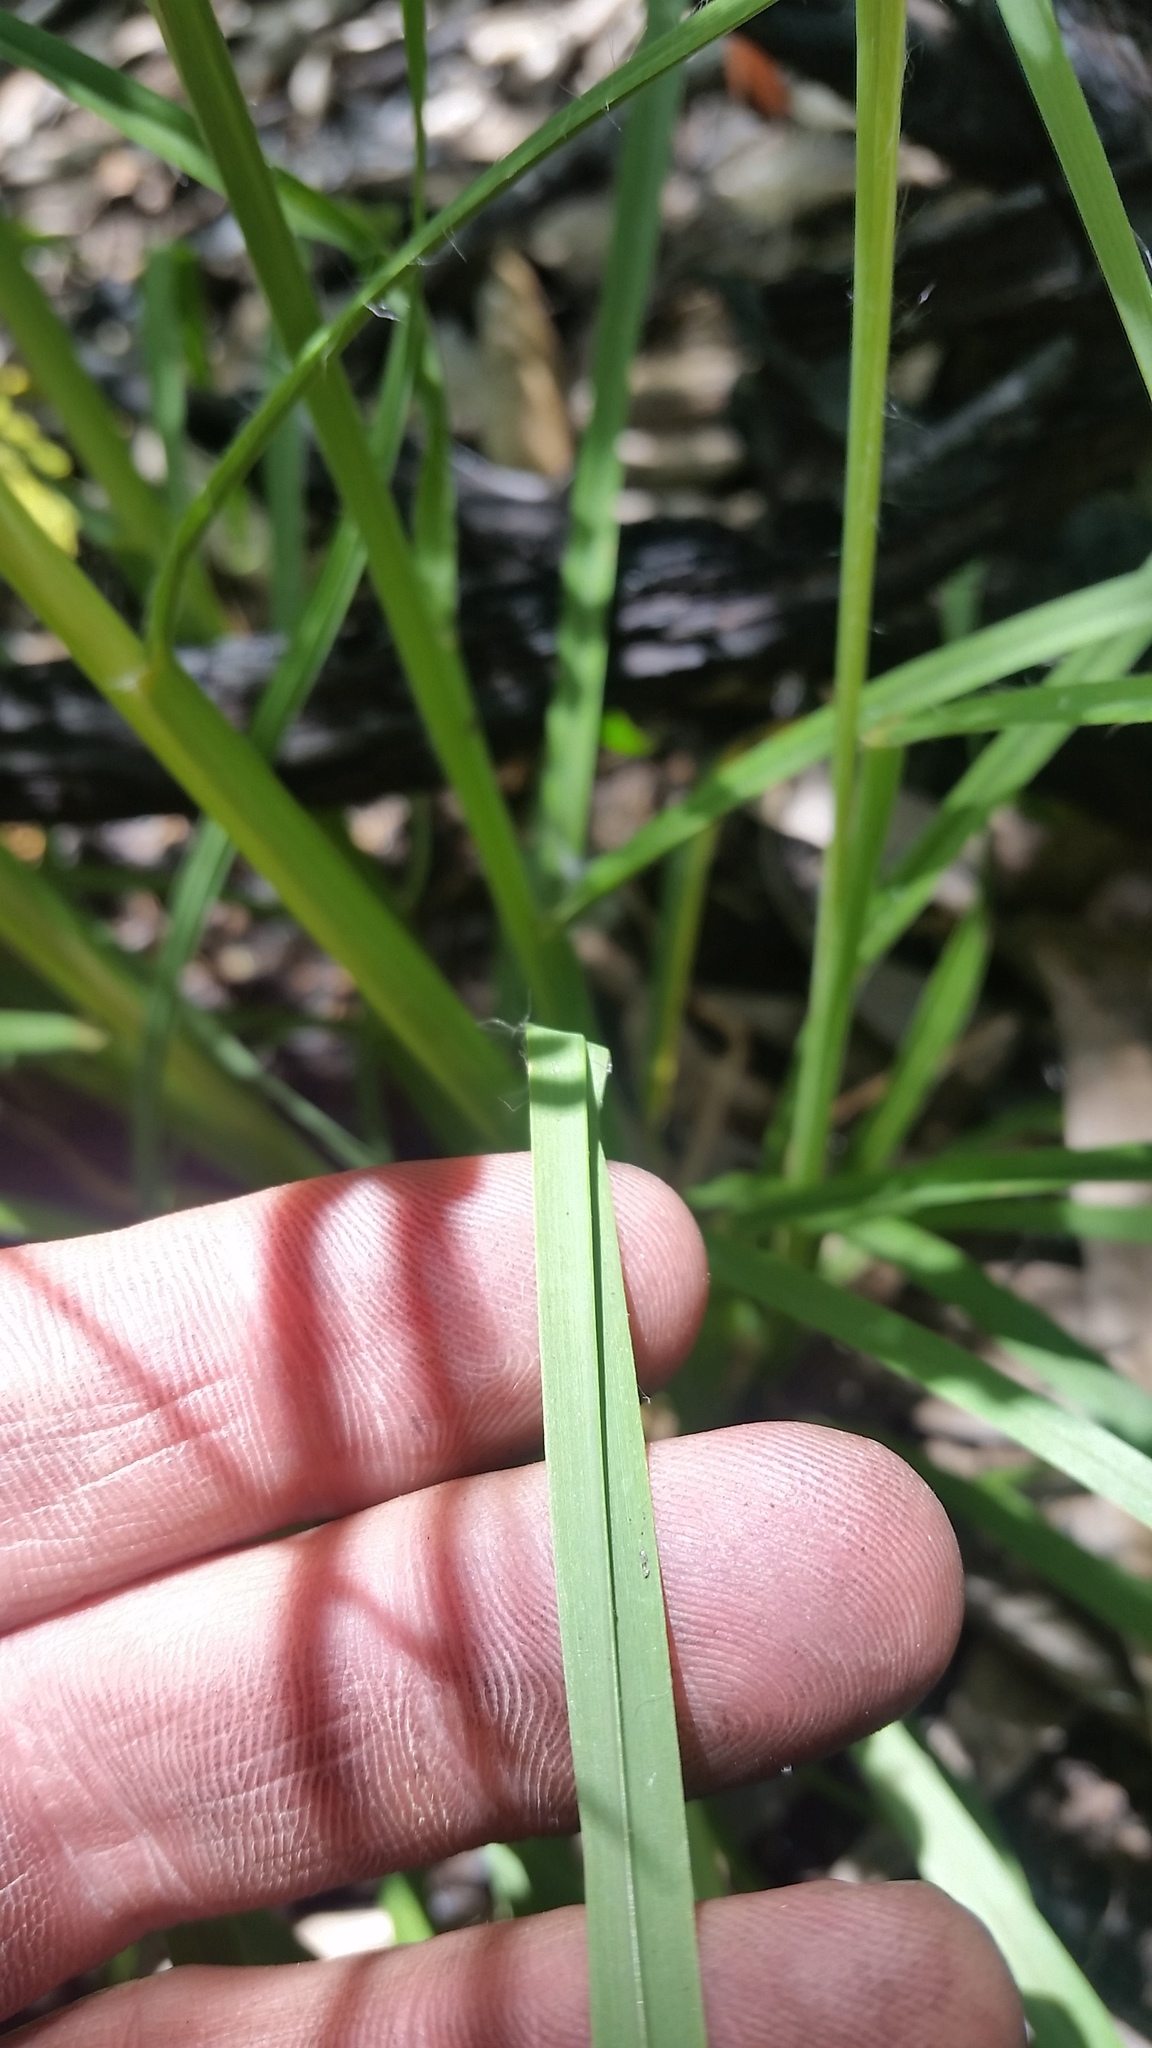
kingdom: Plantae
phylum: Tracheophyta
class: Liliopsida
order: Poales
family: Poaceae
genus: Andropogon
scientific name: Andropogon virginicus
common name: Broomsedge bluestem
